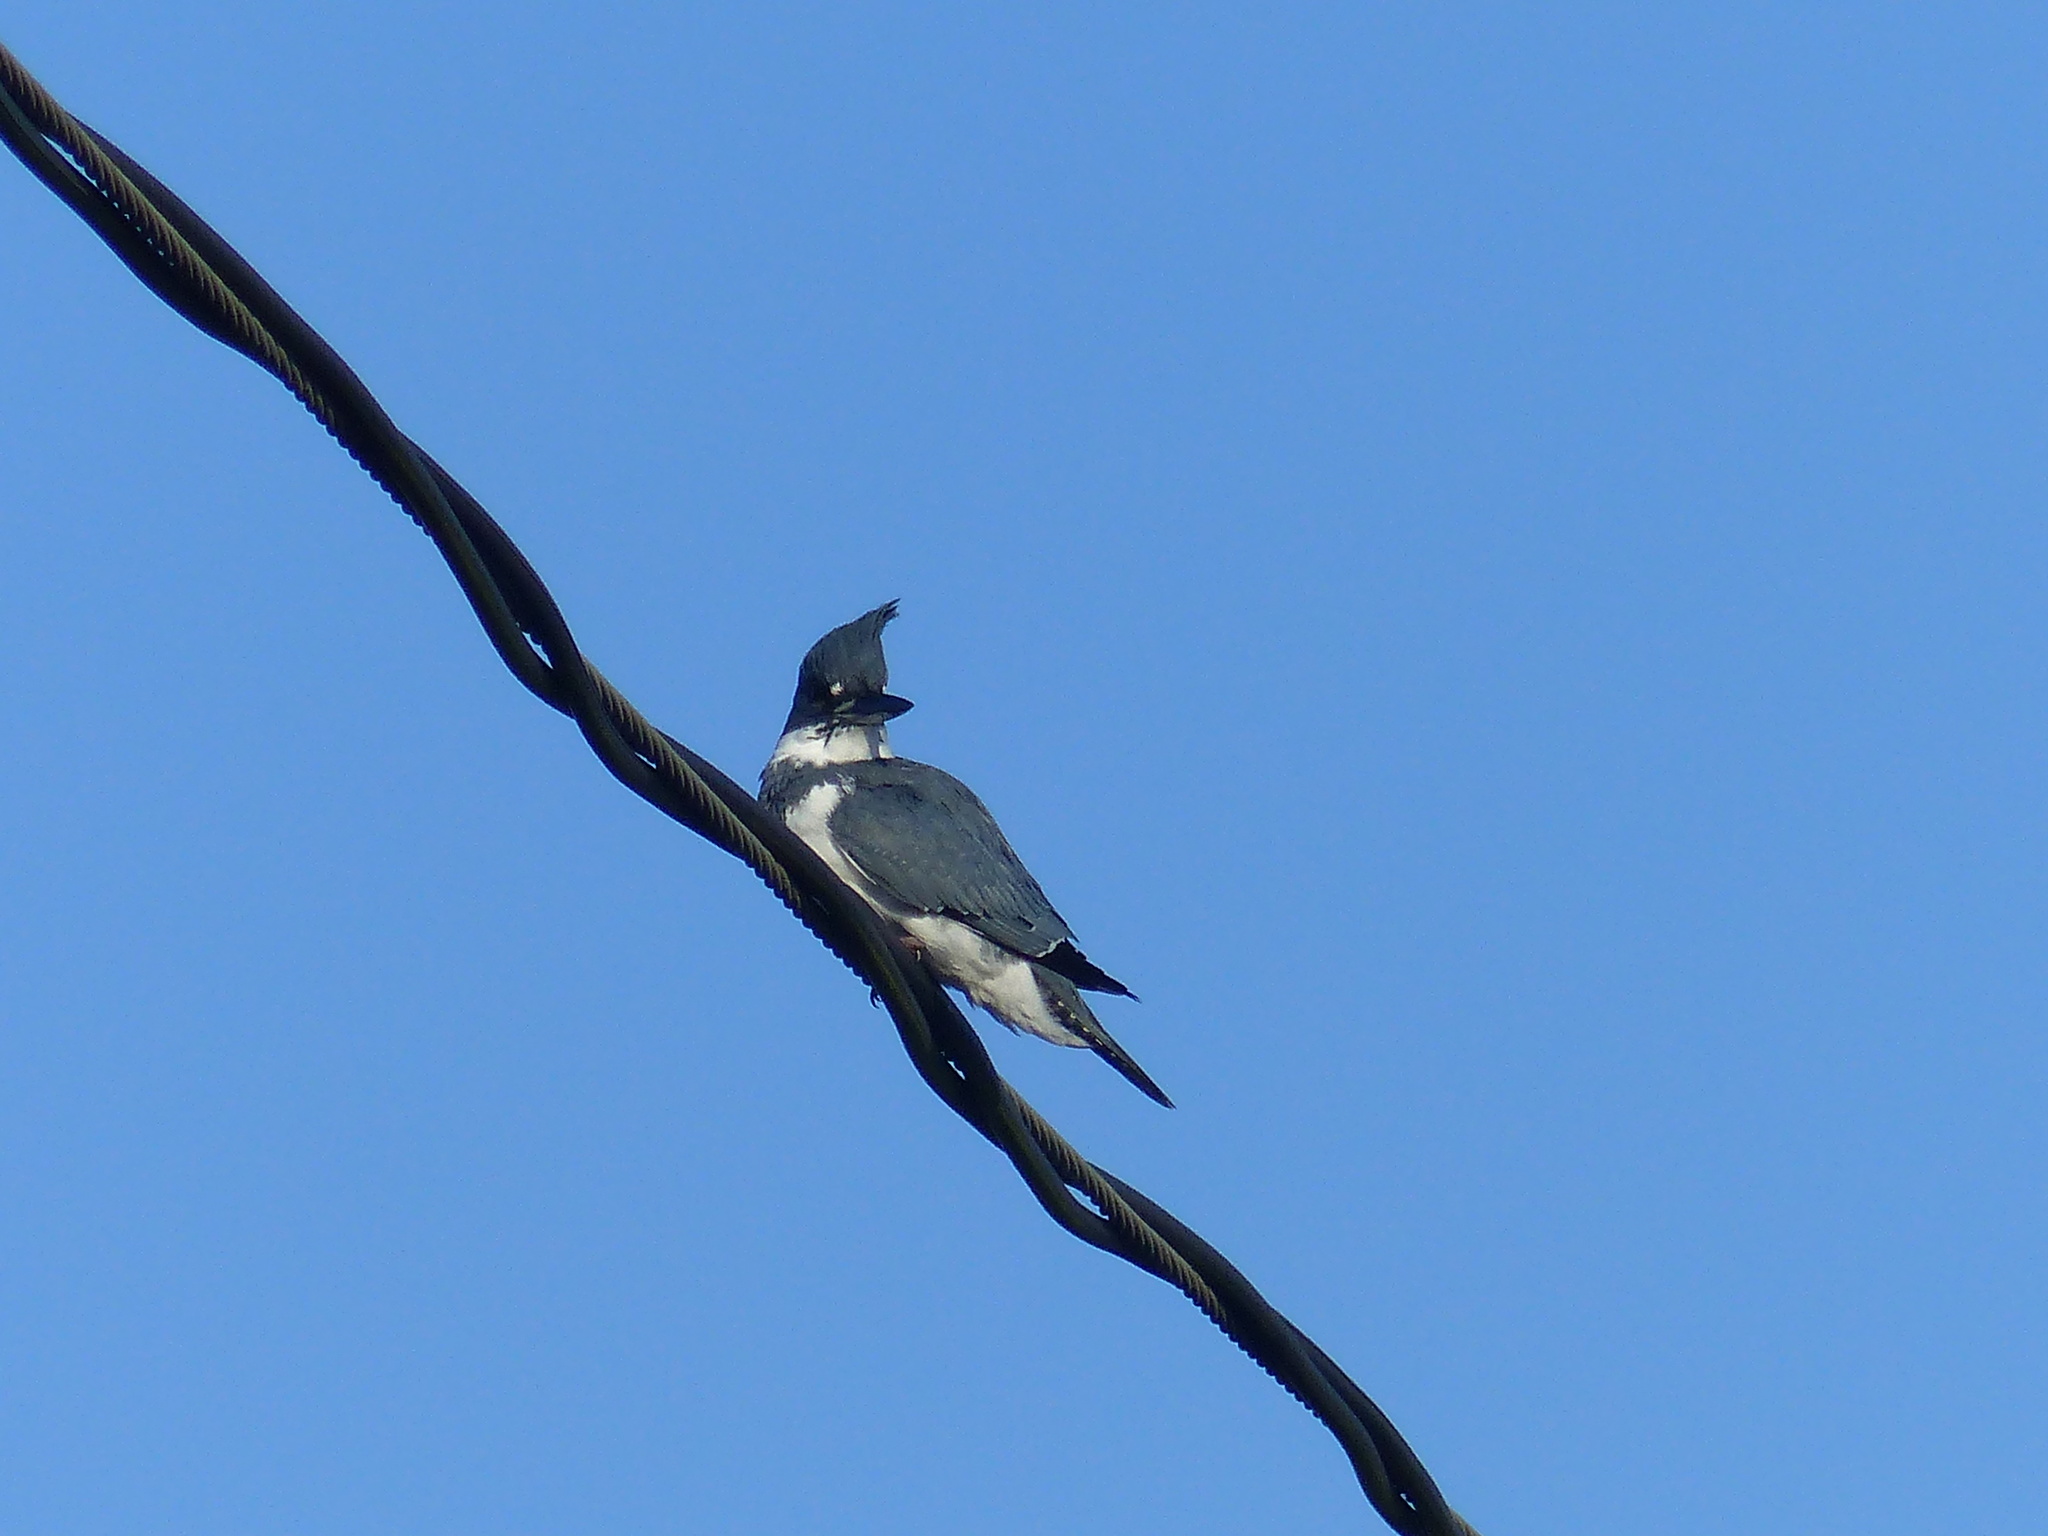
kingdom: Animalia
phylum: Chordata
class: Aves
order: Coraciiformes
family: Alcedinidae
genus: Megaceryle
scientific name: Megaceryle alcyon
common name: Belted kingfisher
